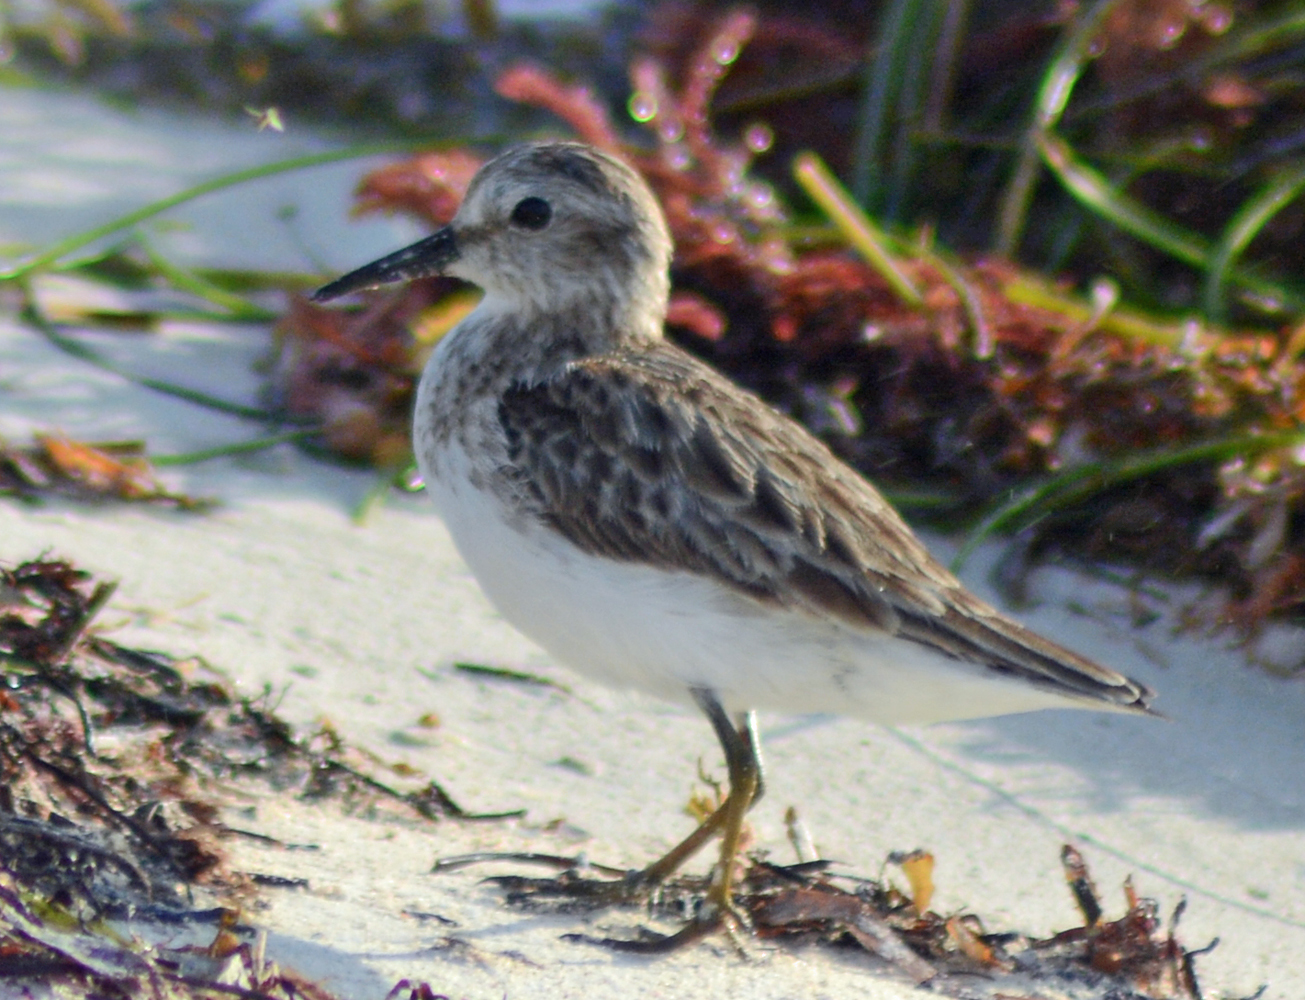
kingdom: Animalia
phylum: Chordata
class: Aves
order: Charadriiformes
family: Scolopacidae
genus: Calidris
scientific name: Calidris minutilla
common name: Least sandpiper
